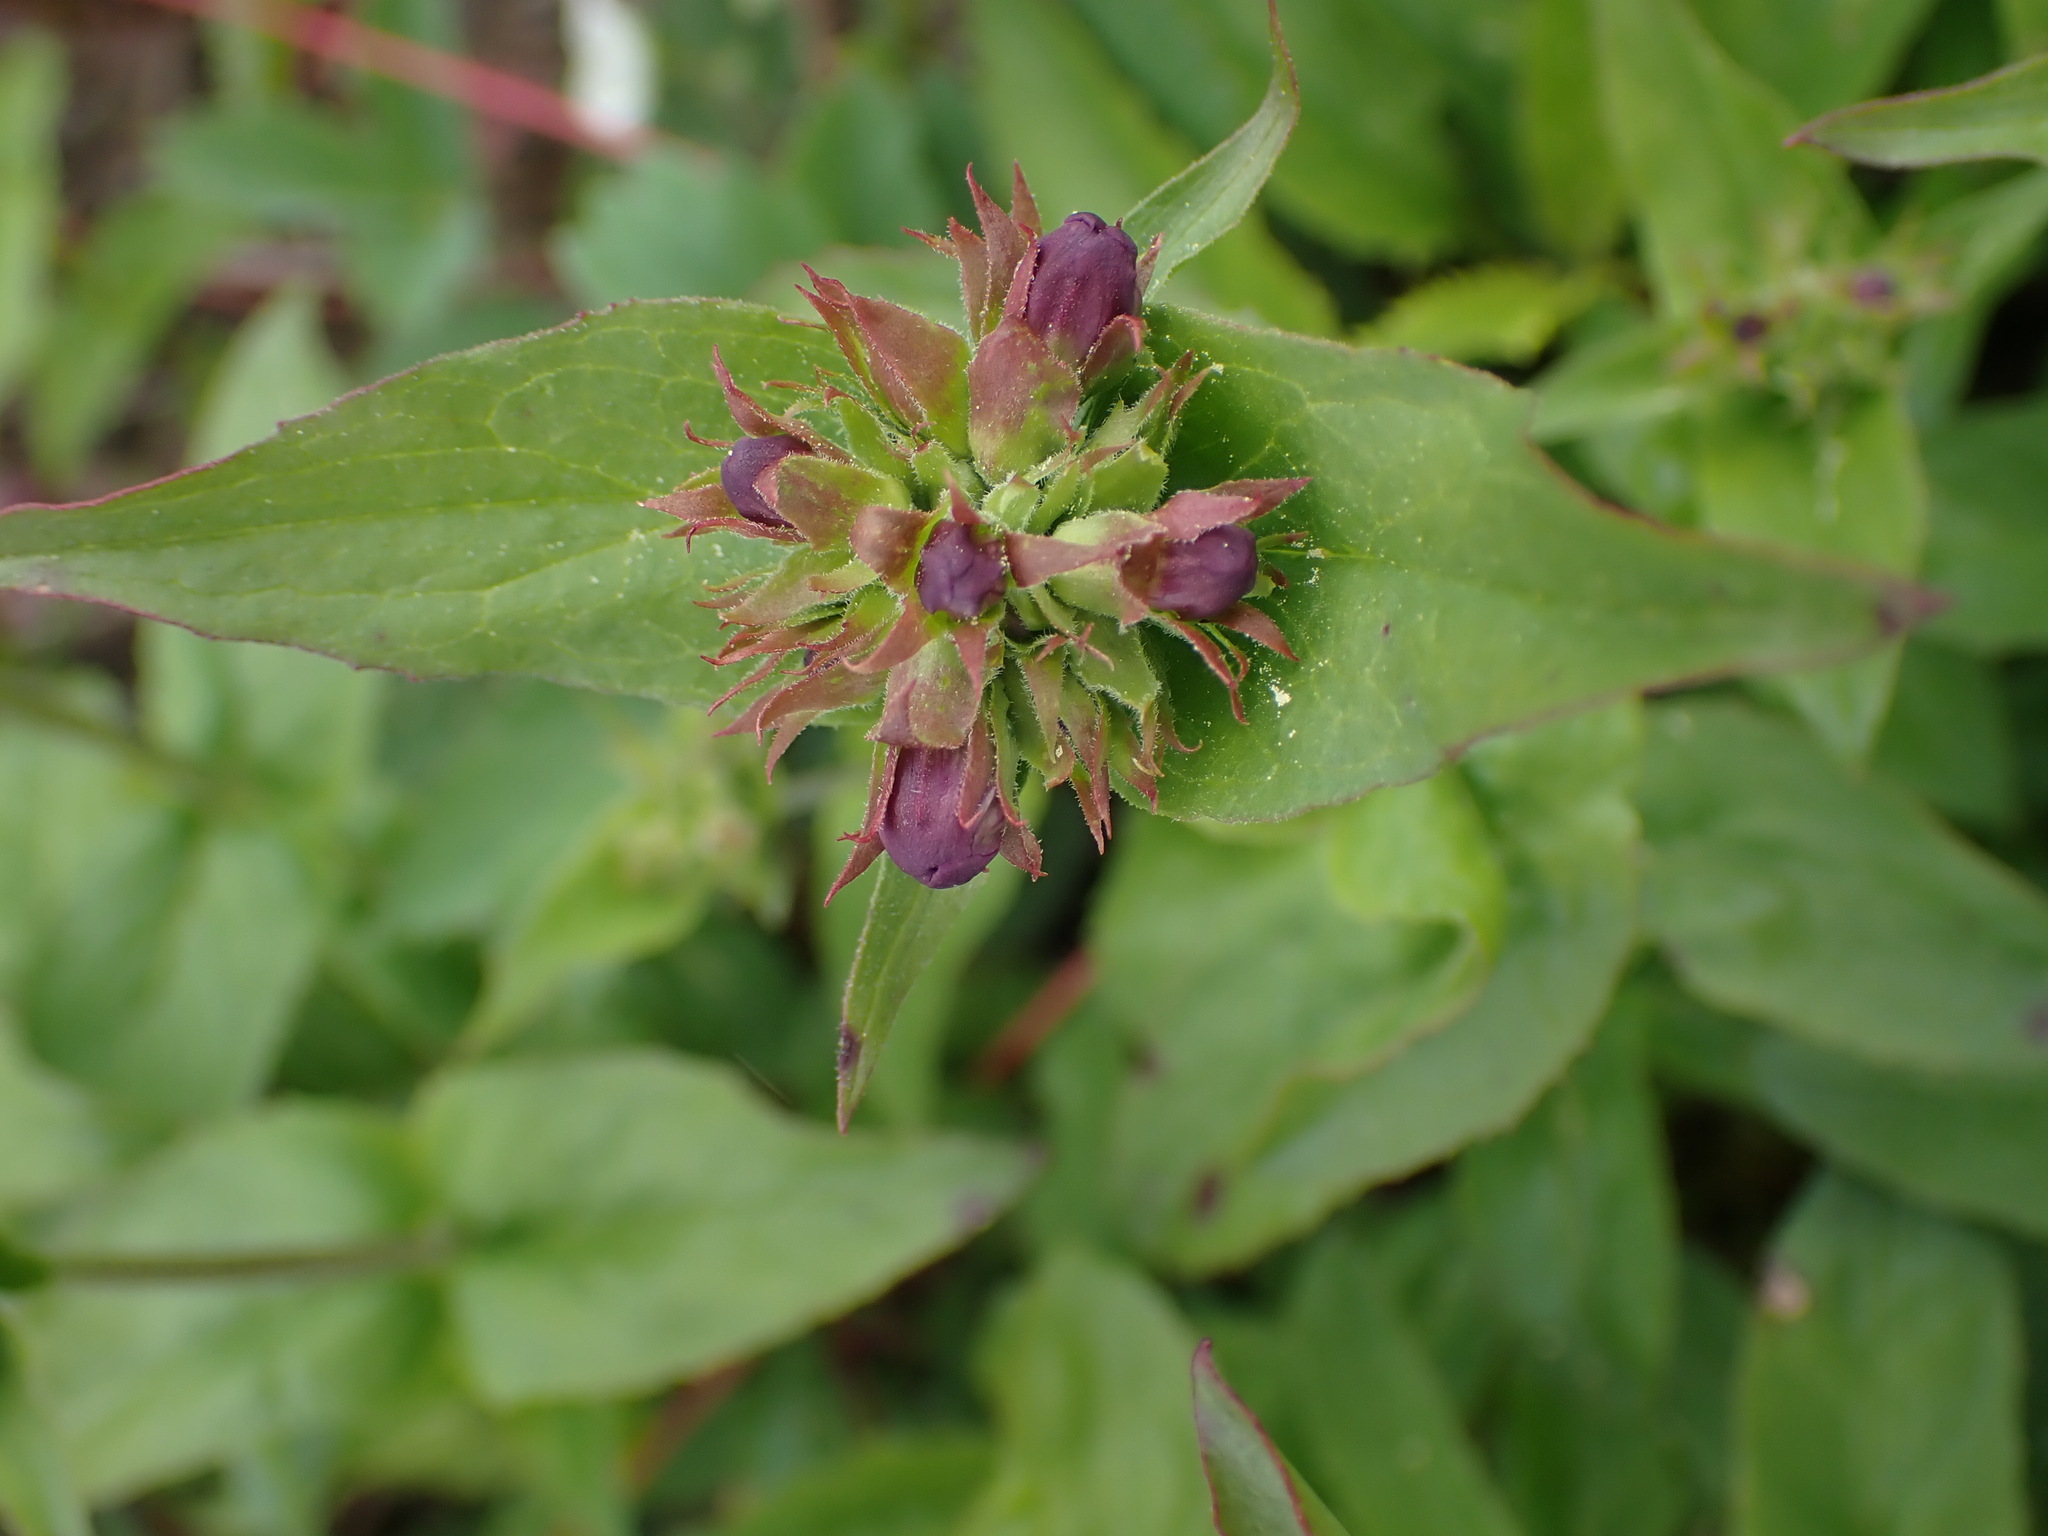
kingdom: Plantae
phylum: Tracheophyta
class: Magnoliopsida
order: Lamiales
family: Plantaginaceae
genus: Penstemon
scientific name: Penstemon serrulatus
